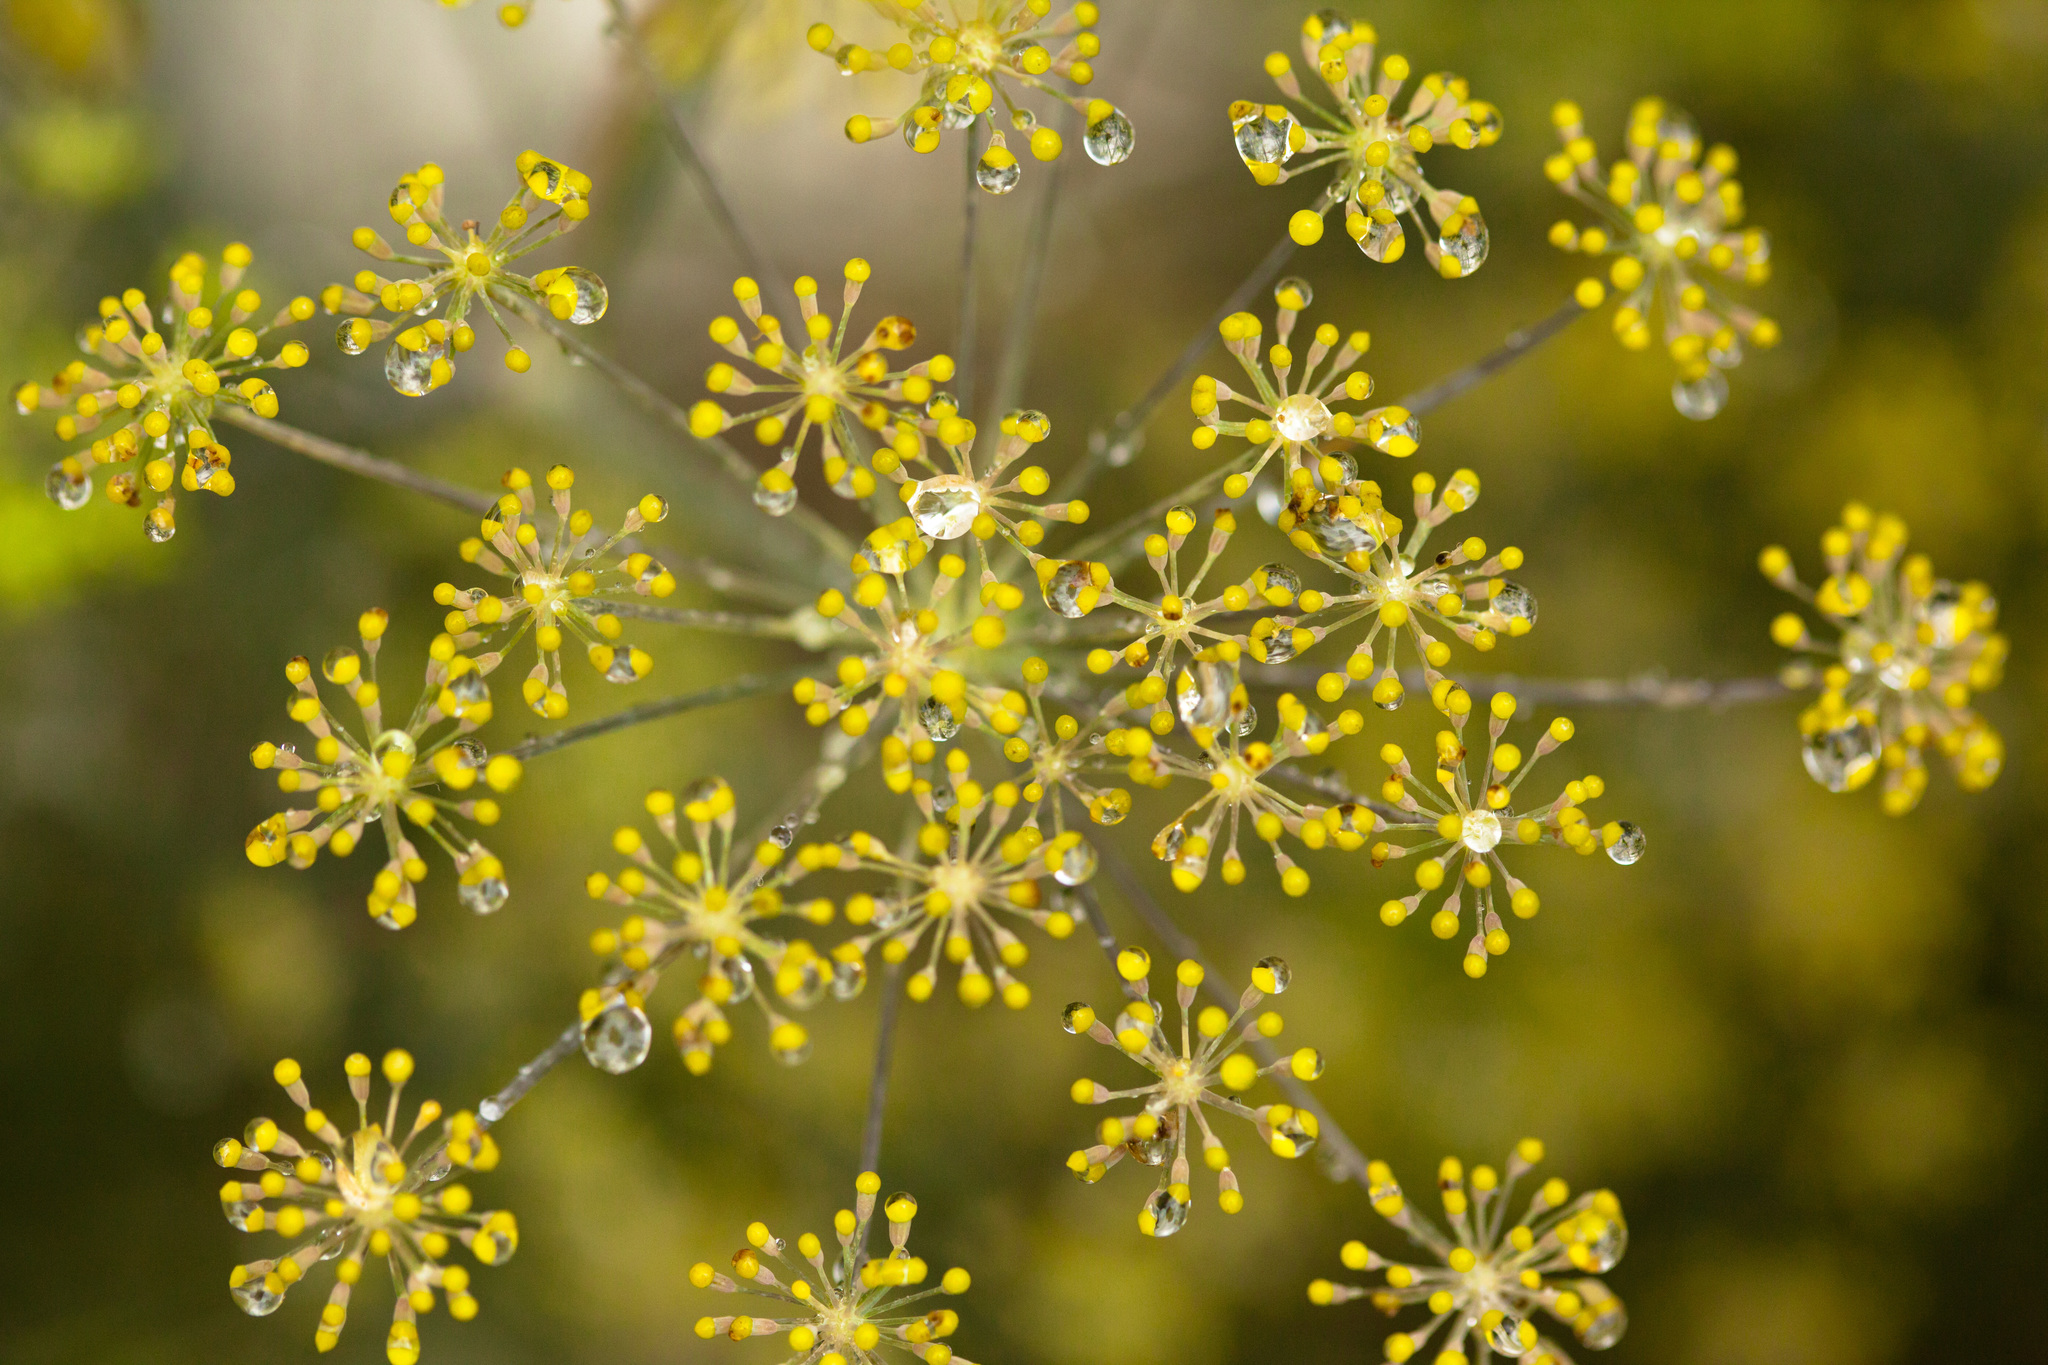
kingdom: Plantae
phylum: Tracheophyta
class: Magnoliopsida
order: Apiales
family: Apiaceae
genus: Foeniculum
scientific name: Foeniculum vulgare
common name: Fennel
